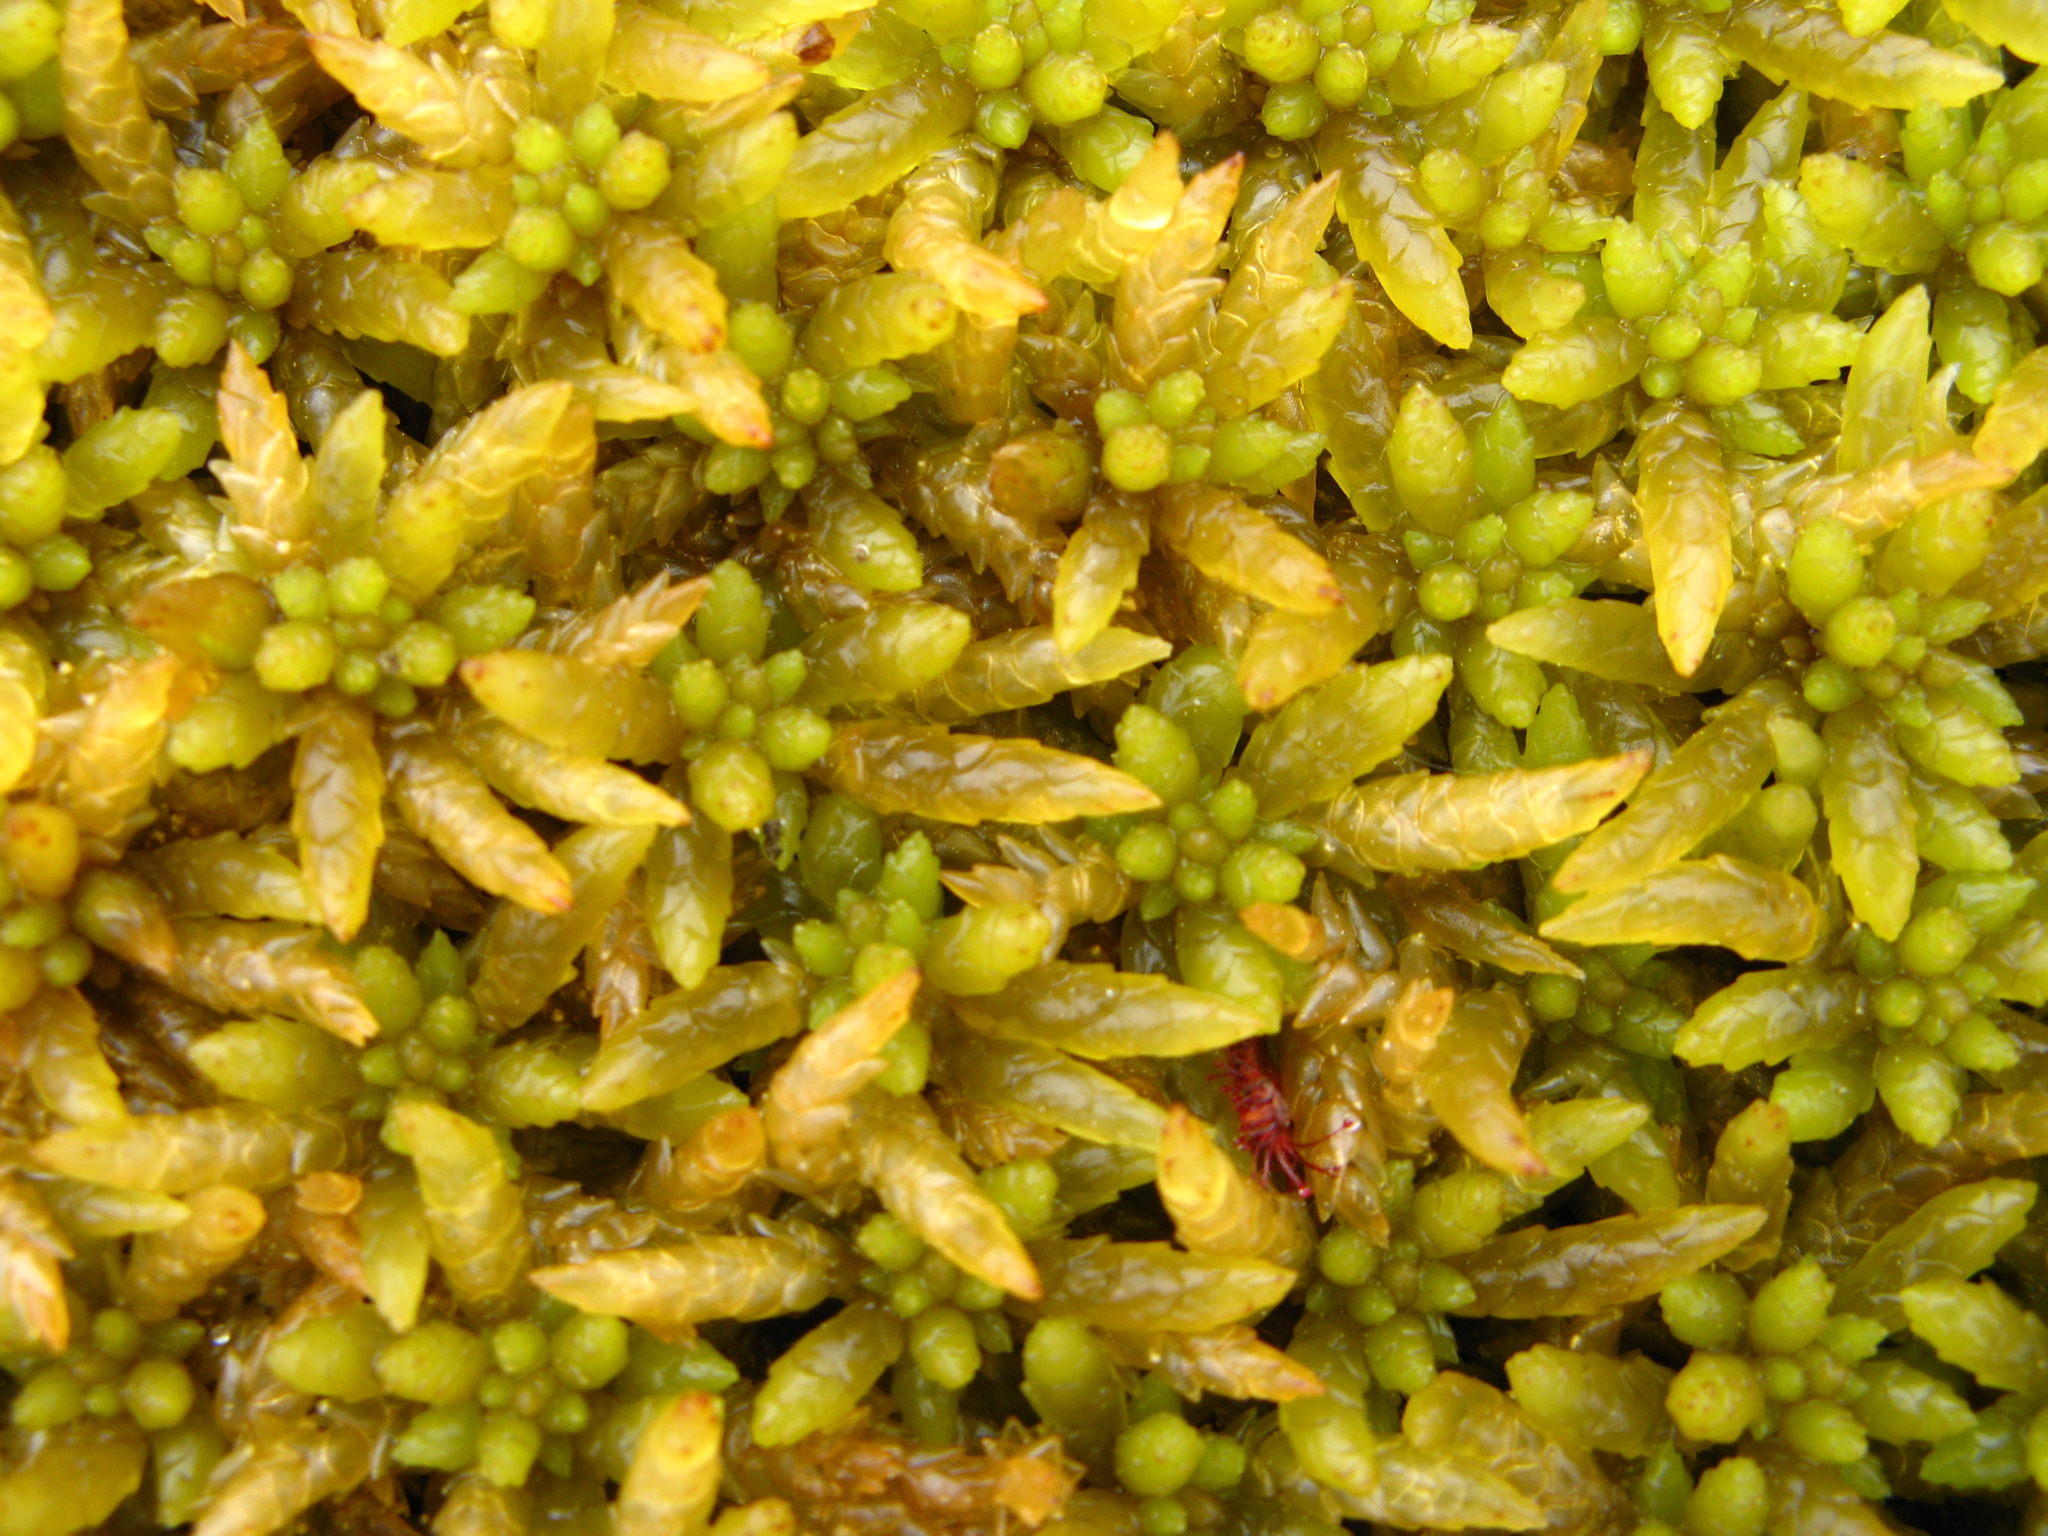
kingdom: Plantae
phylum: Bryophyta
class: Sphagnopsida
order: Sphagnales
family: Sphagnaceae
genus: Sphagnum
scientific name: Sphagnum papillosum
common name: Papillose peat moss
